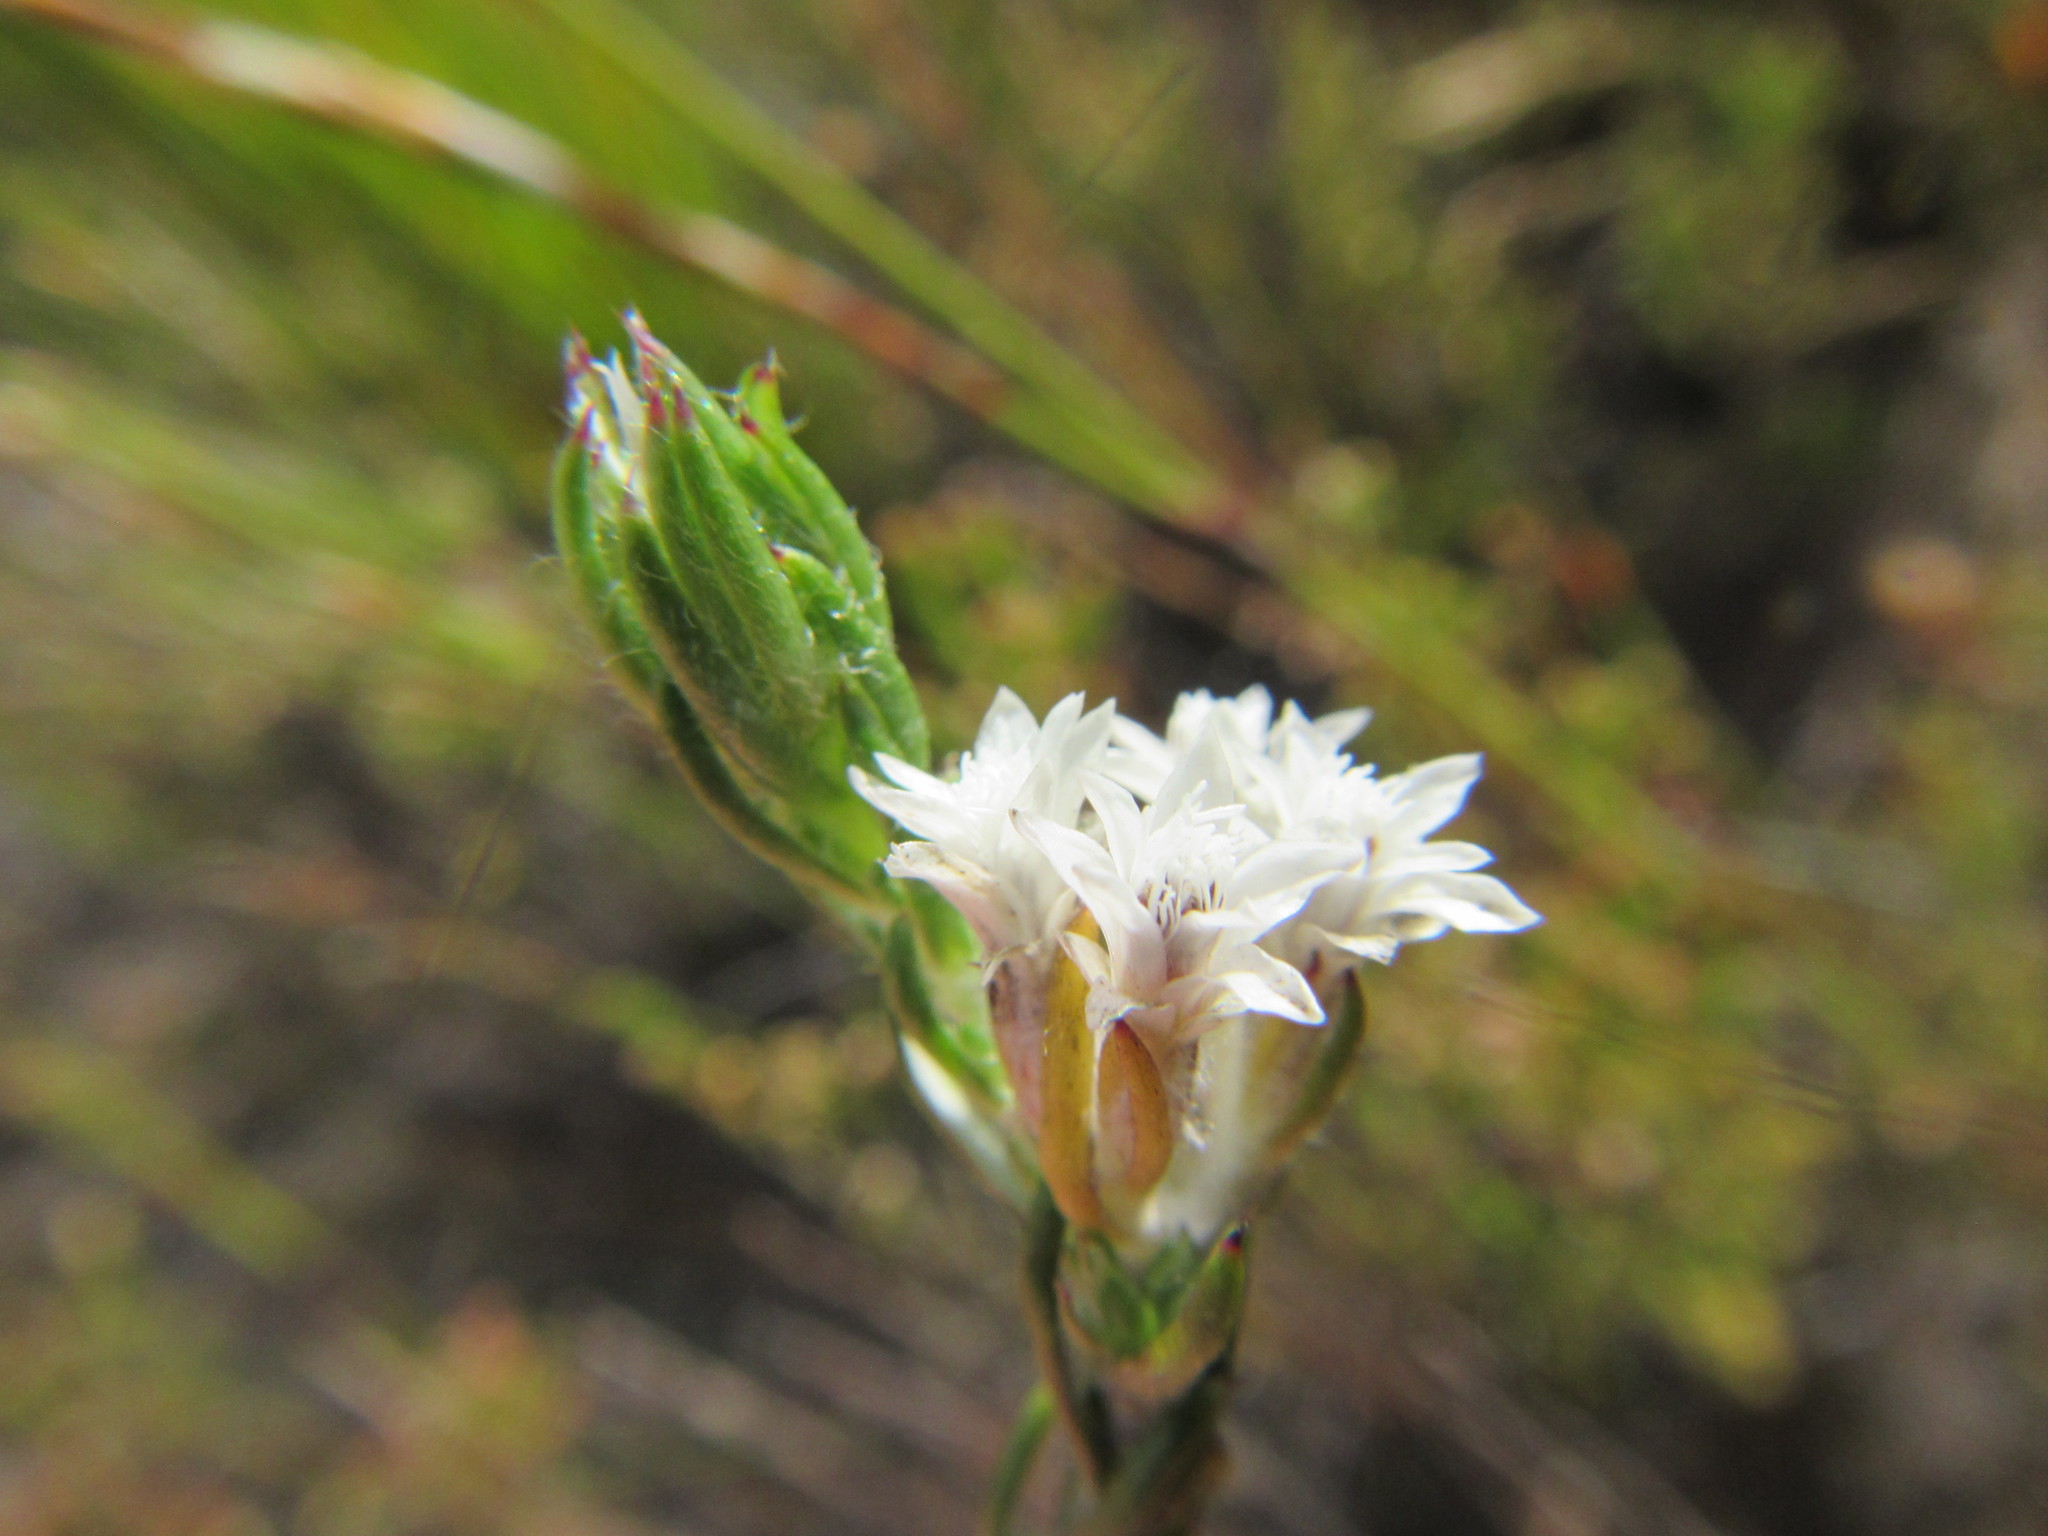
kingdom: Plantae
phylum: Tracheophyta
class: Magnoliopsida
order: Asterales
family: Asteraceae
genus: Metalasia
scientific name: Metalasia quinqueflora
